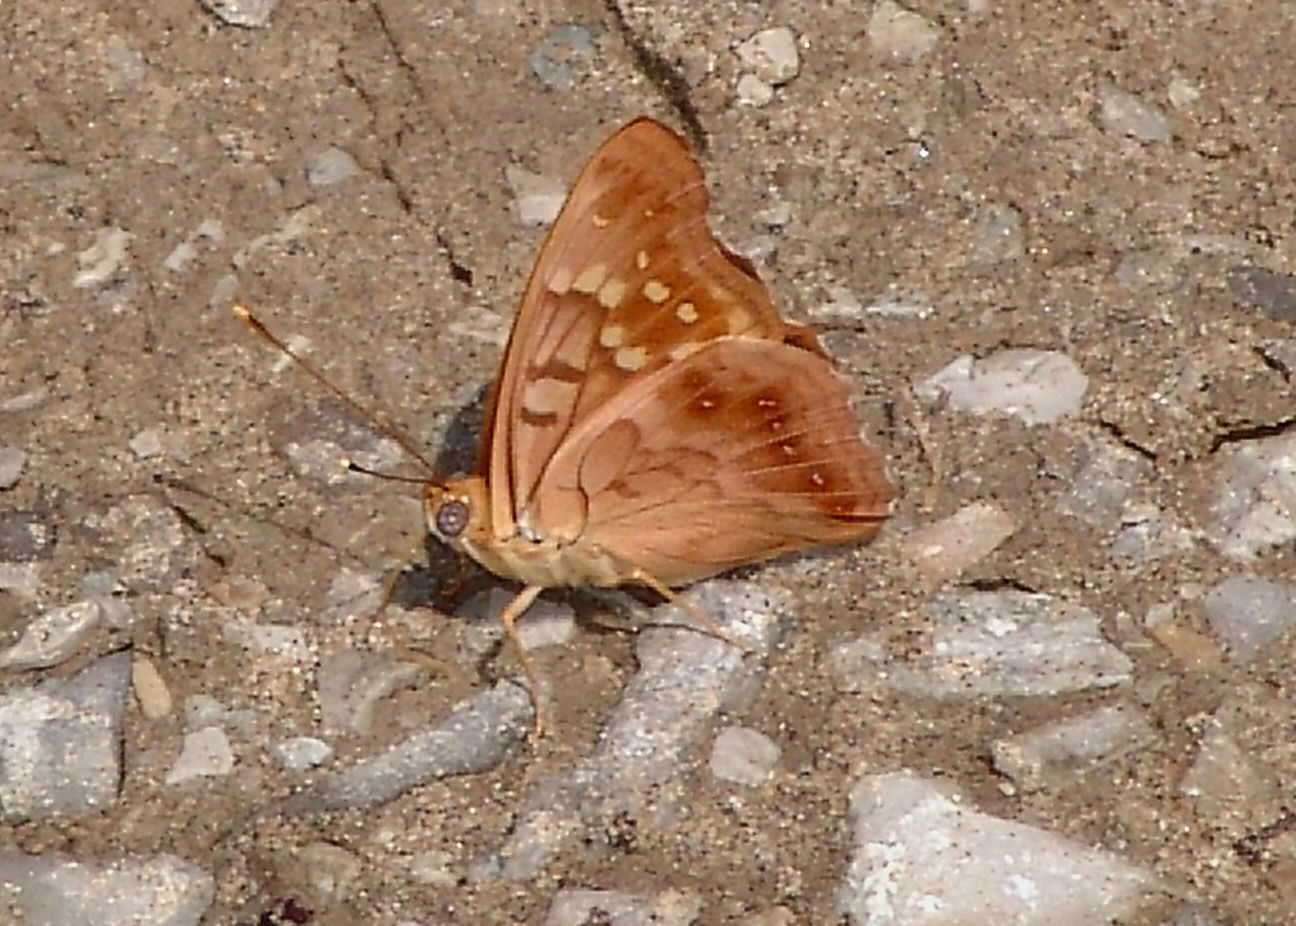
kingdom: Animalia
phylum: Arthropoda
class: Insecta
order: Lepidoptera
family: Nymphalidae
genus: Asterocampa
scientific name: Asterocampa clyton
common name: Tawny emperor
